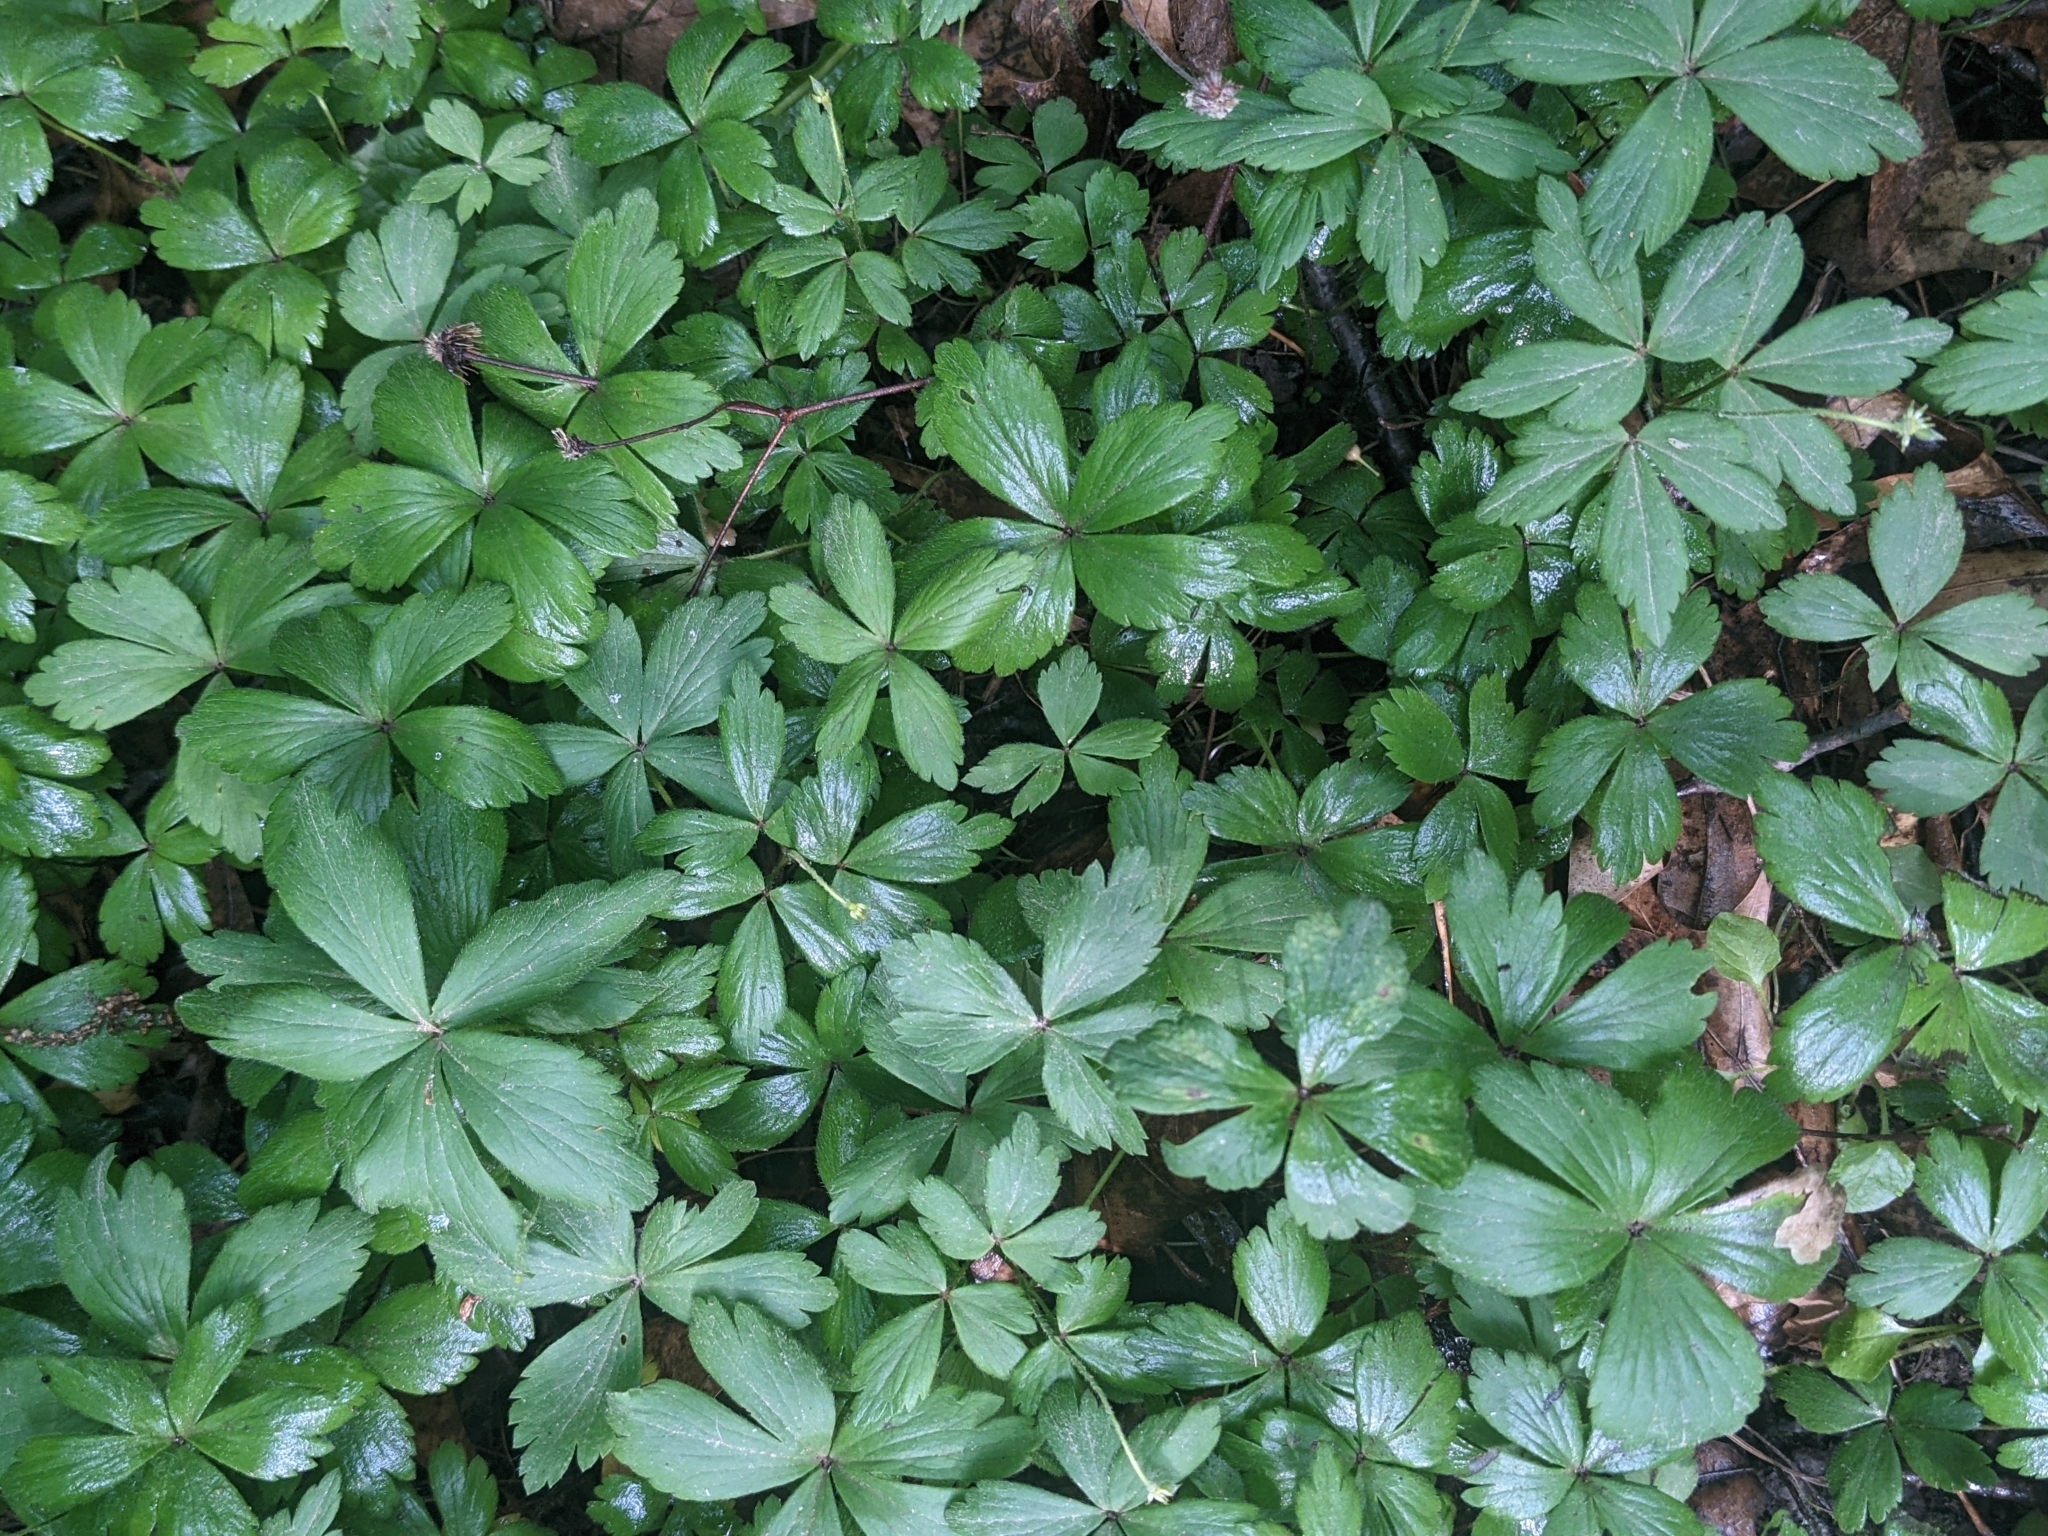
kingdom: Plantae
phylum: Tracheophyta
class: Magnoliopsida
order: Ranunculales
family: Ranunculaceae
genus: Anemone
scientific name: Anemone quinquefolia
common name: Wood anemone
